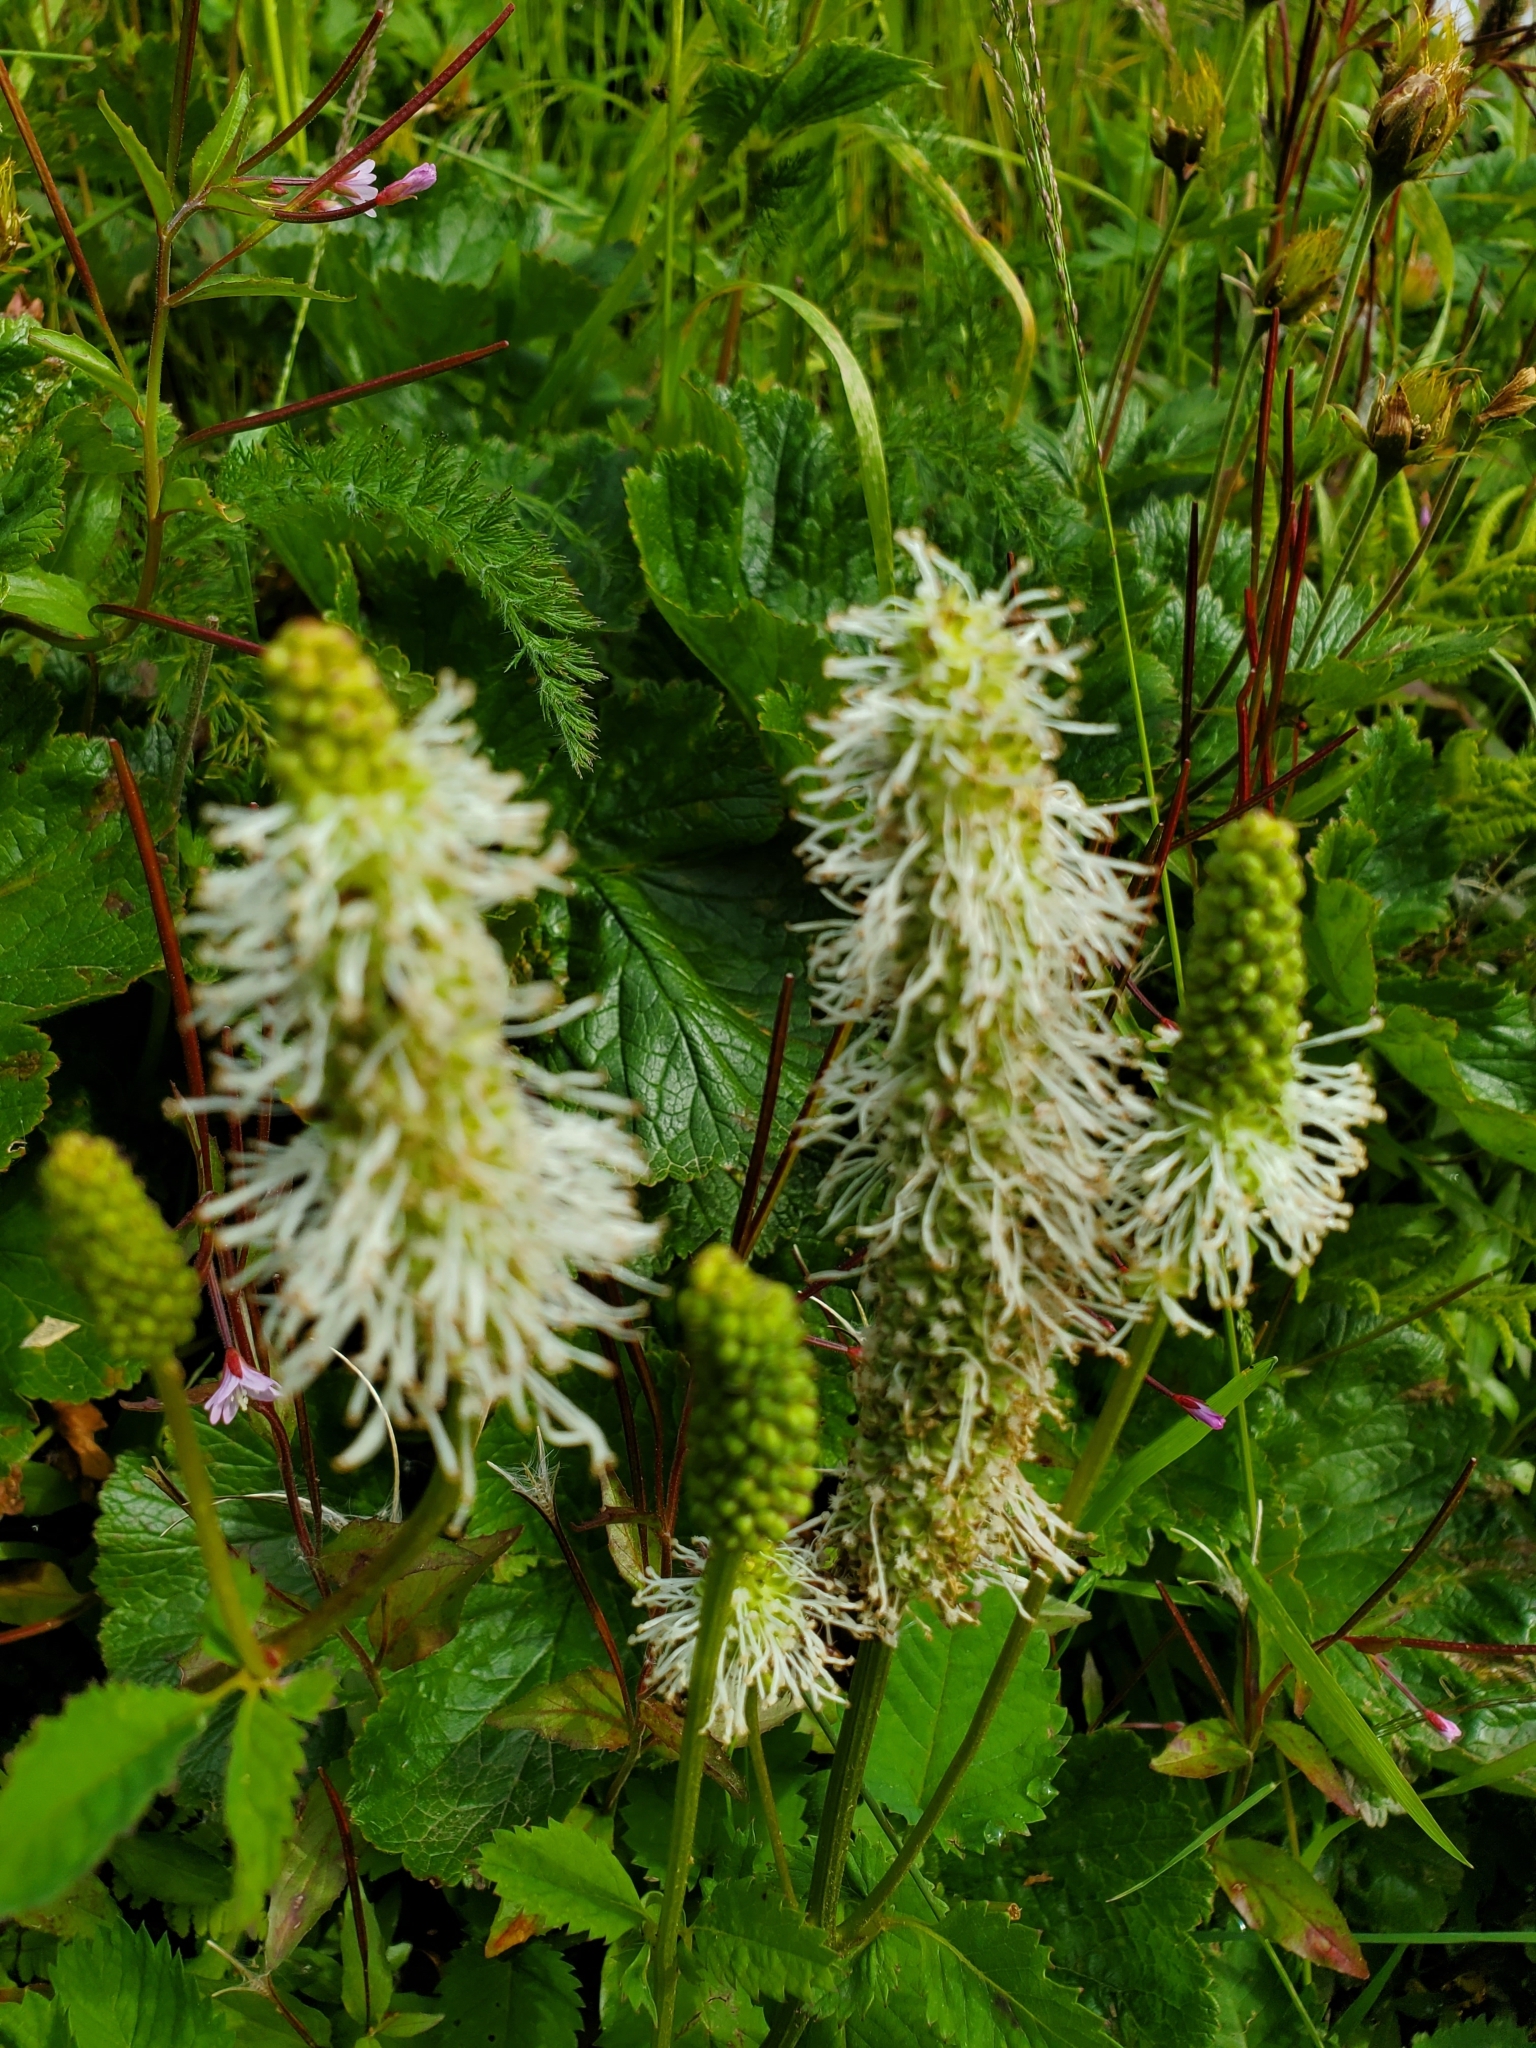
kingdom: Plantae
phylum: Tracheophyta
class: Magnoliopsida
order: Rosales
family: Rosaceae
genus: Sanguisorba
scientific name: Sanguisorba stipulata
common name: Sitka burnet
